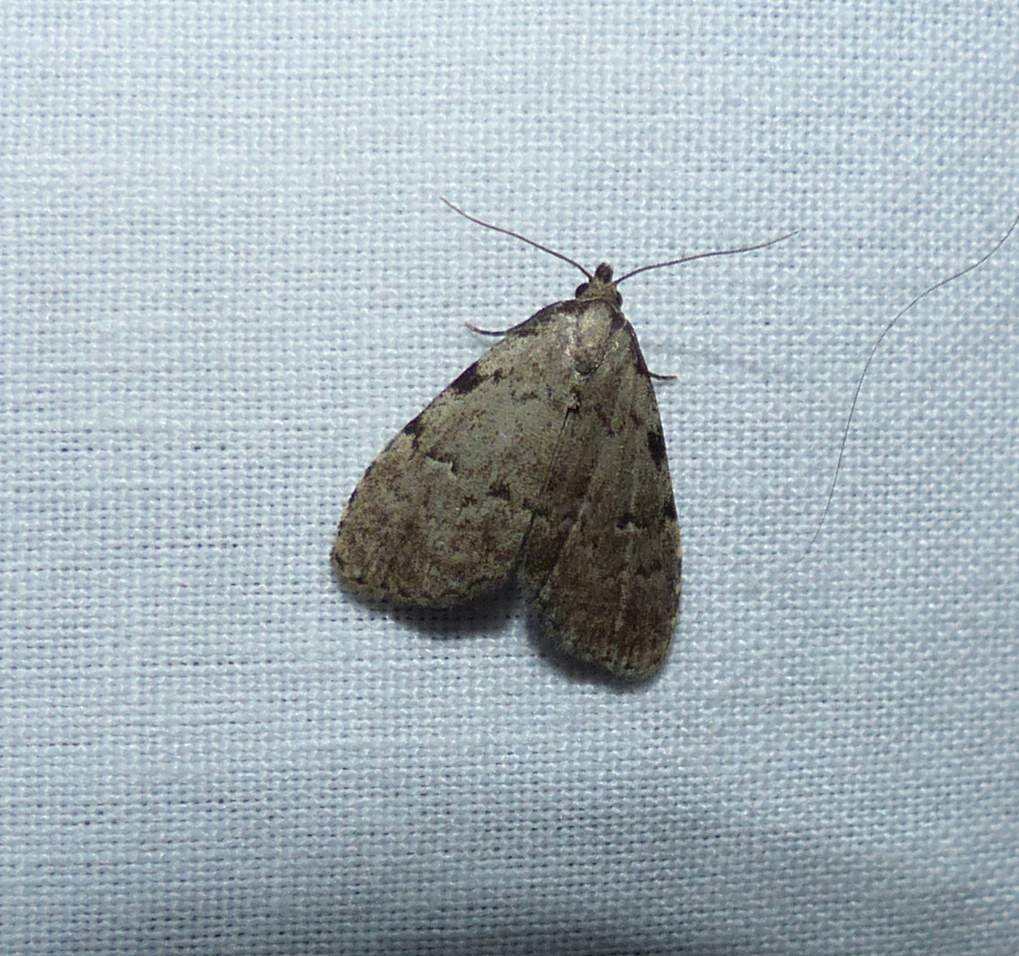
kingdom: Animalia
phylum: Arthropoda
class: Insecta
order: Lepidoptera
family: Erebidae
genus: Dyspyralis
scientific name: Dyspyralis puncticosta
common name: Spot-edged dyspyralis moth
